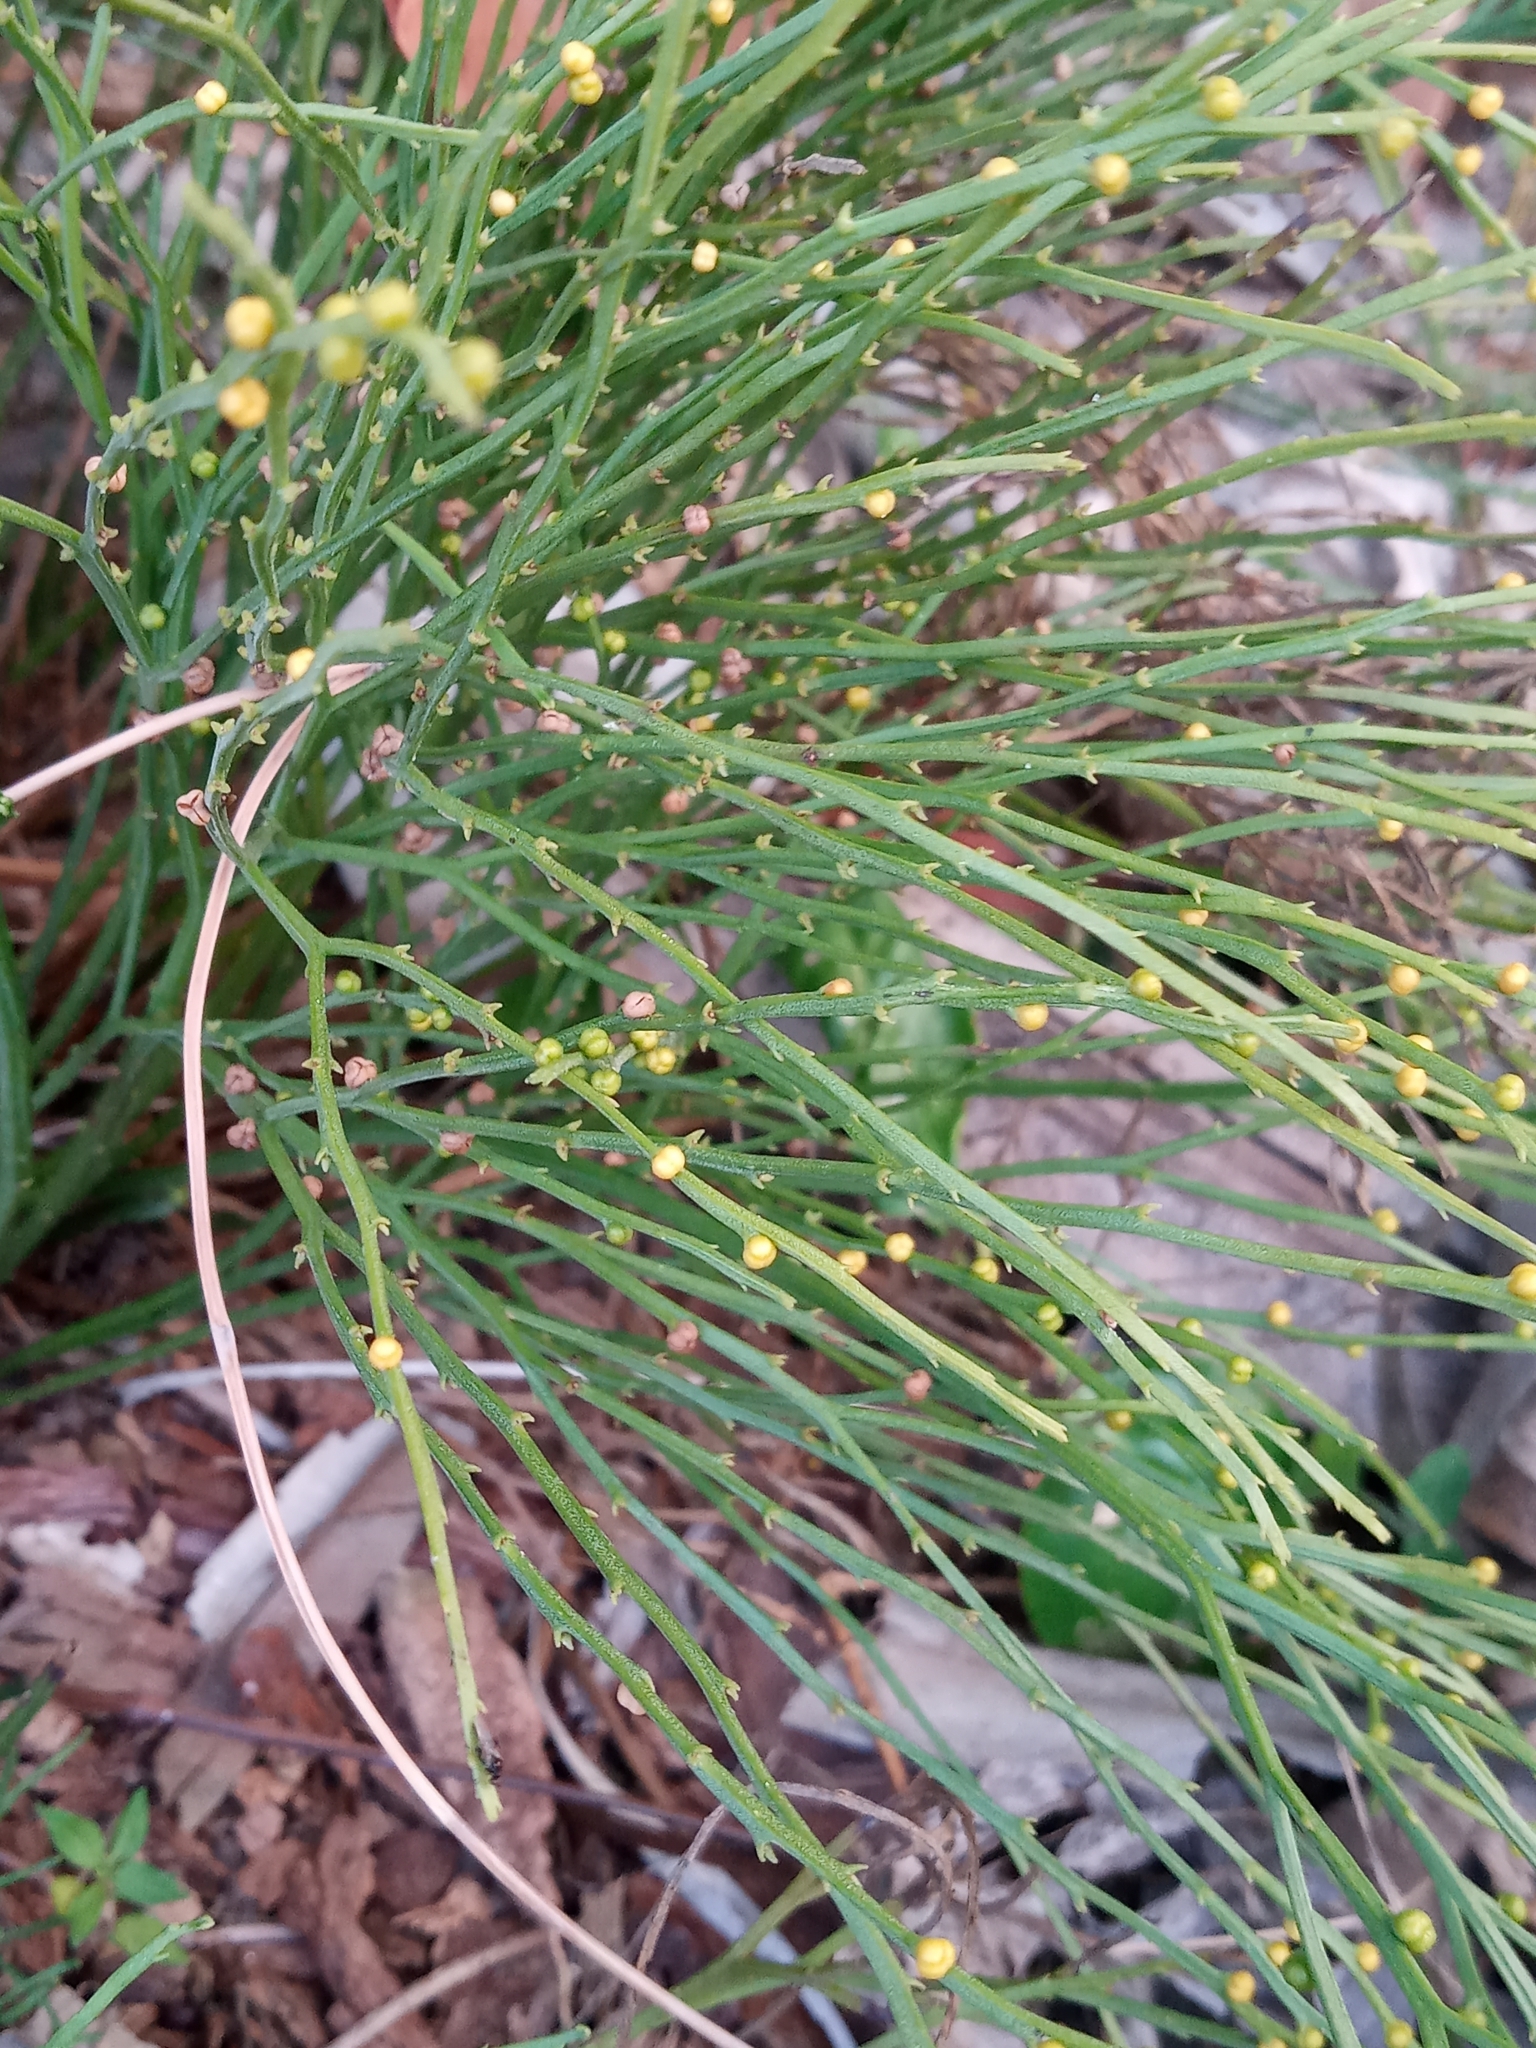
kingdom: Plantae
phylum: Tracheophyta
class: Polypodiopsida
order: Psilotales
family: Psilotaceae
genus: Psilotum
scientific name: Psilotum nudum
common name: Skeleton fork fern
